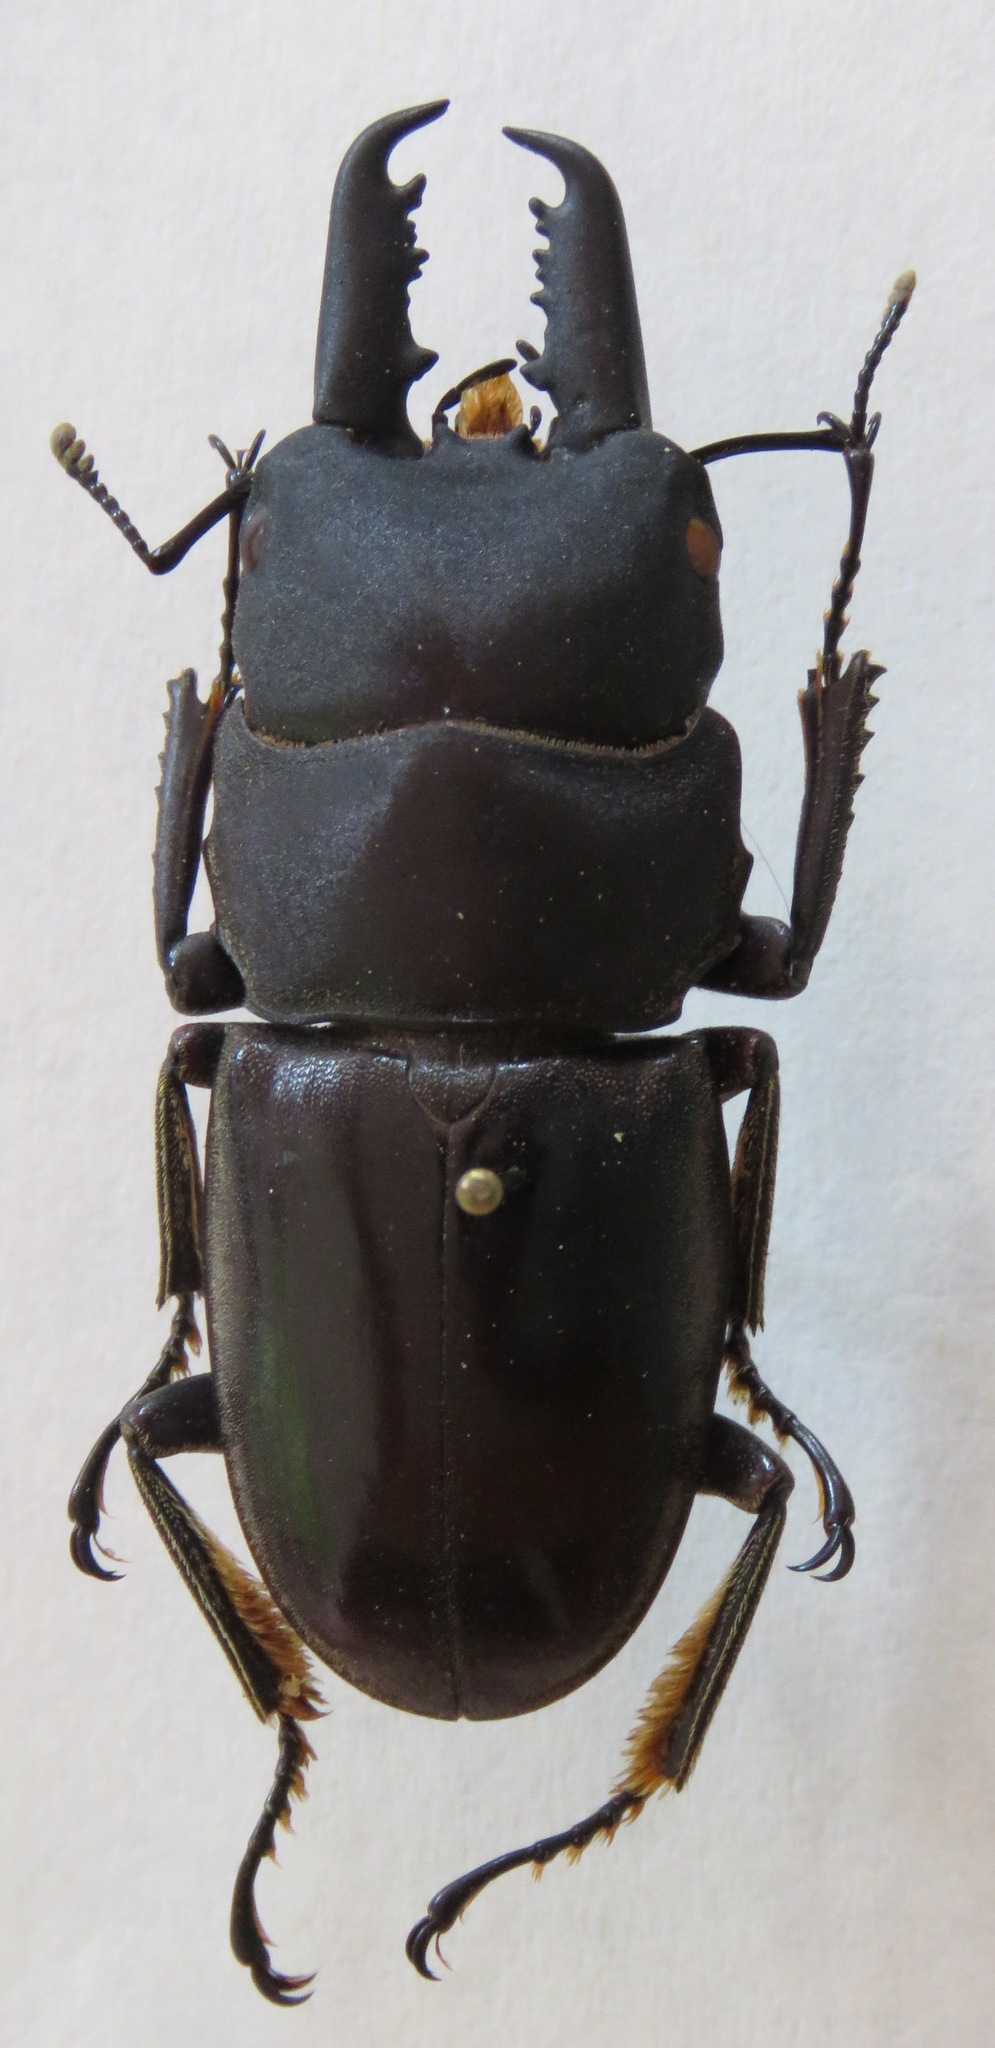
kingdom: Animalia
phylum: Arthropoda
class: Insecta
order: Coleoptera
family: Lucanidae
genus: Dorcus
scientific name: Dorcus townesi
